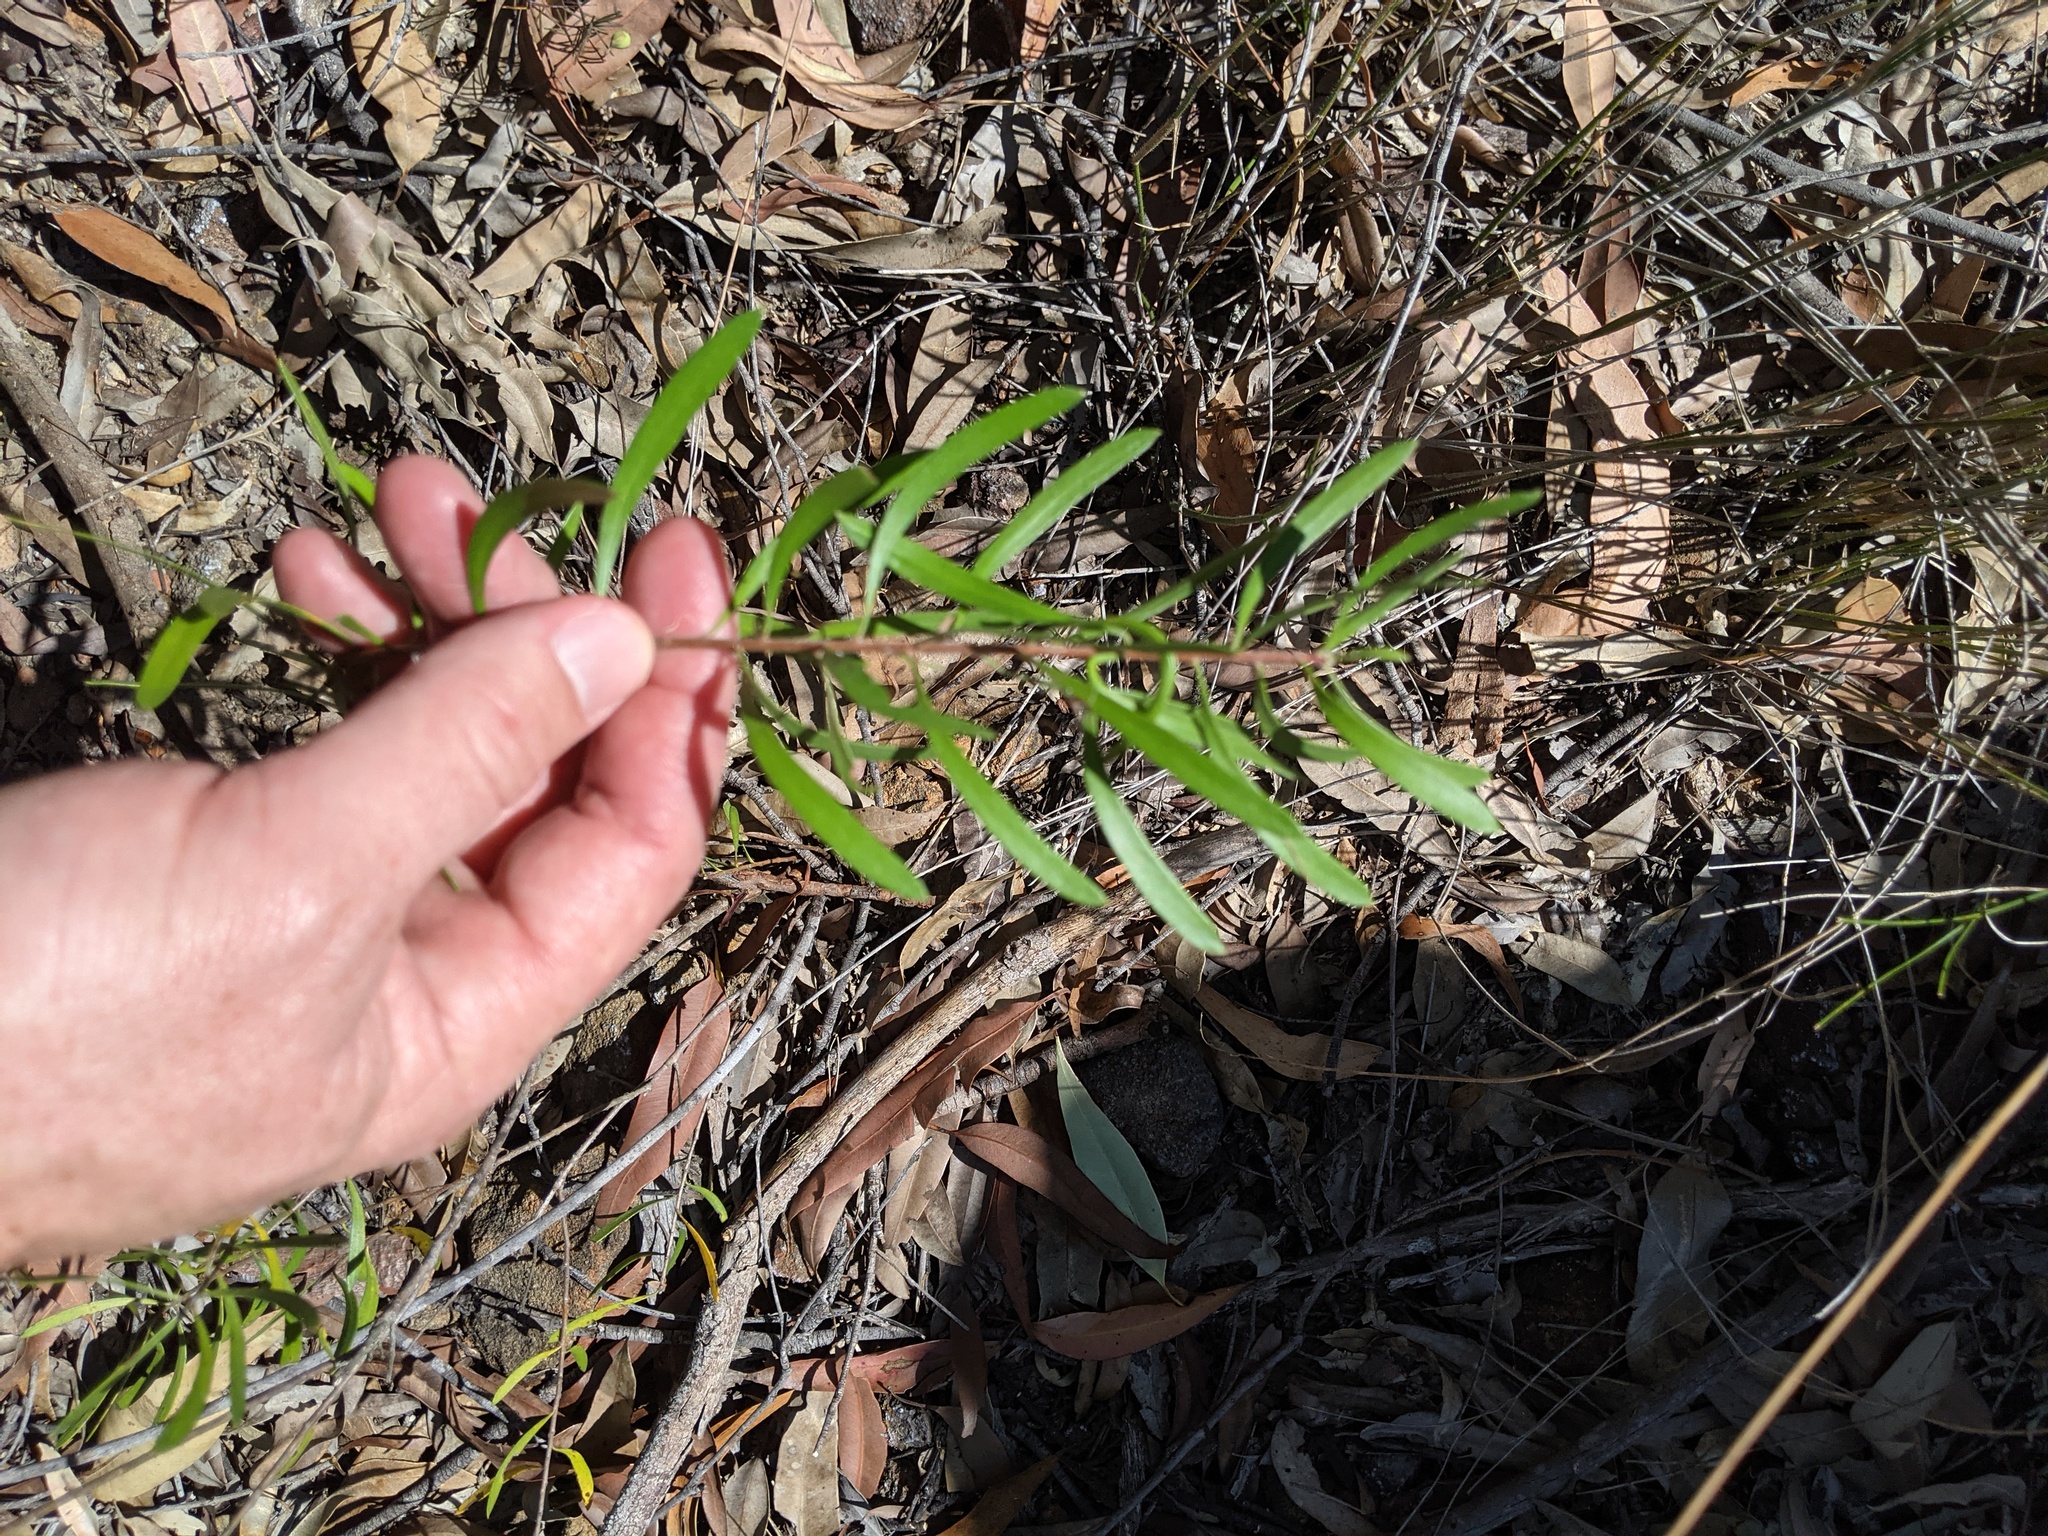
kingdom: Plantae
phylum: Tracheophyta
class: Magnoliopsida
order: Proteales
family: Proteaceae
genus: Persoonia
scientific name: Persoonia sericea
